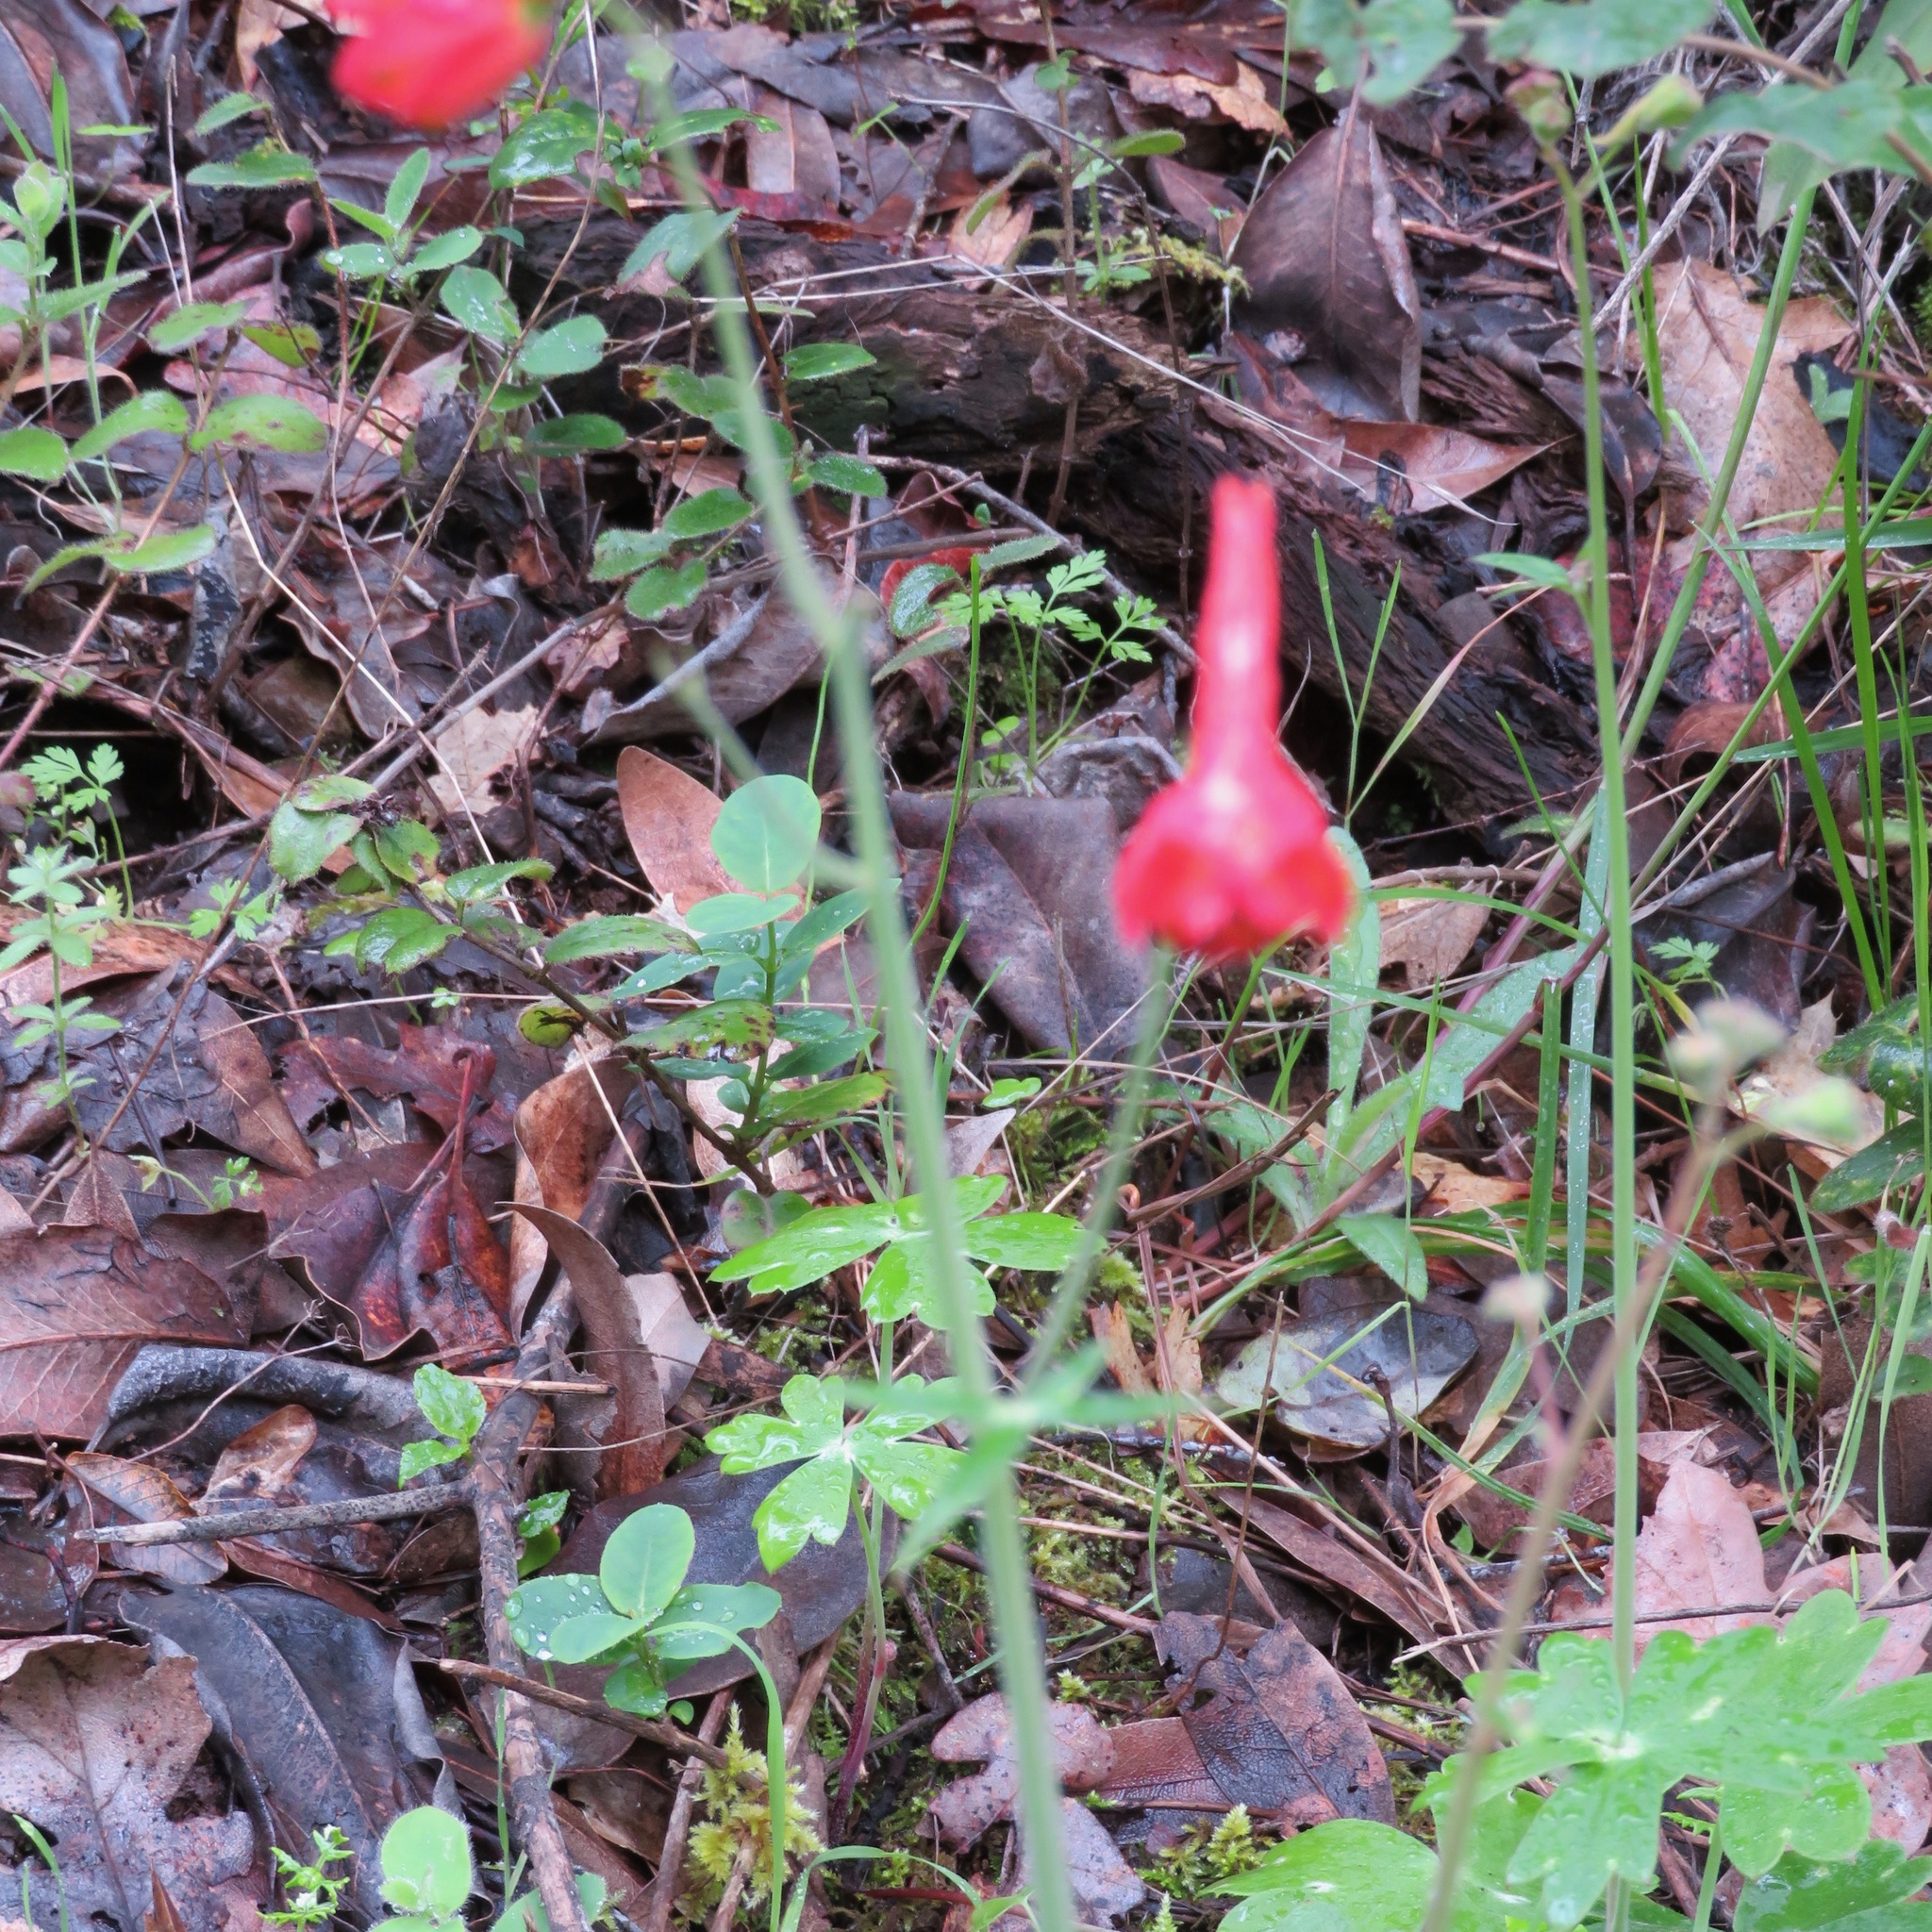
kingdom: Plantae
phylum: Tracheophyta
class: Magnoliopsida
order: Ranunculales
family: Ranunculaceae
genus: Delphinium
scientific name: Delphinium nudicaule
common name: Red larkspur
